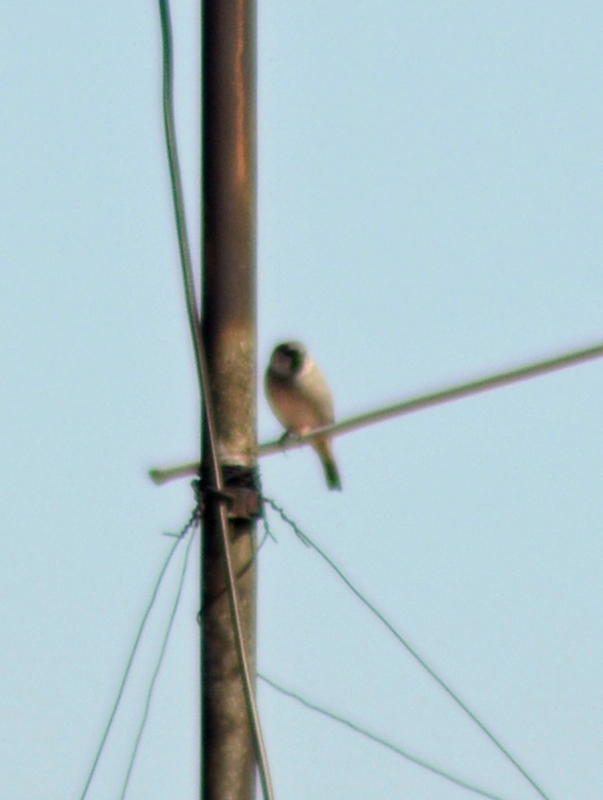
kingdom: Animalia
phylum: Chordata
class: Aves
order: Passeriformes
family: Passeridae
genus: Passer
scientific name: Passer domesticus
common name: House sparrow
